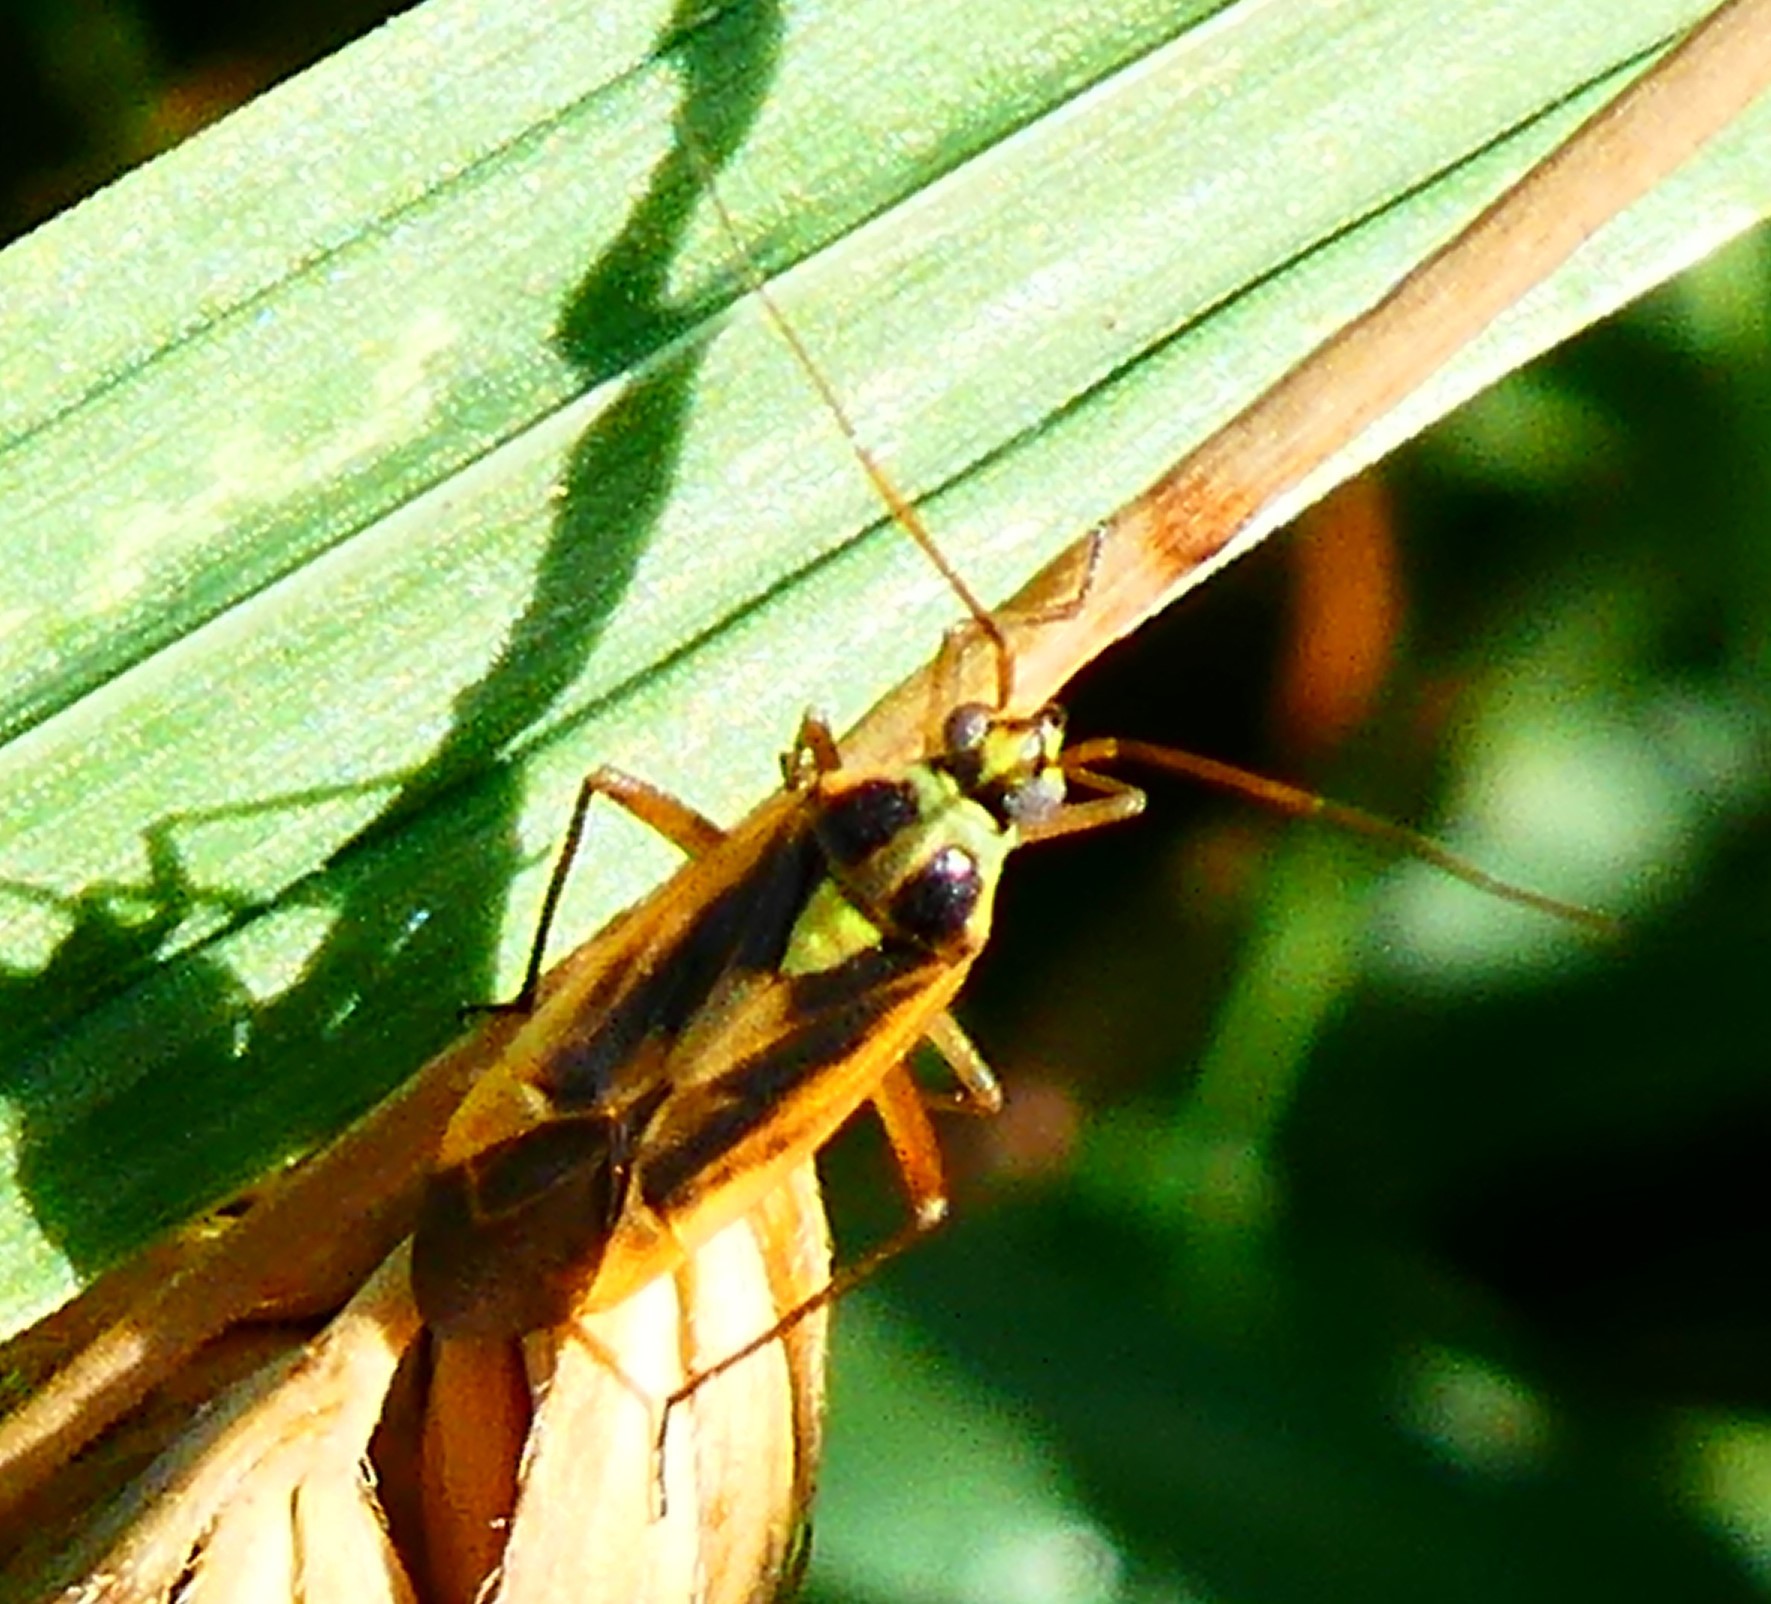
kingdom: Animalia
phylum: Arthropoda
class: Insecta
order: Hemiptera
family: Miridae
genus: Stenotus
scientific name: Stenotus binotatus
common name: Plant bug
